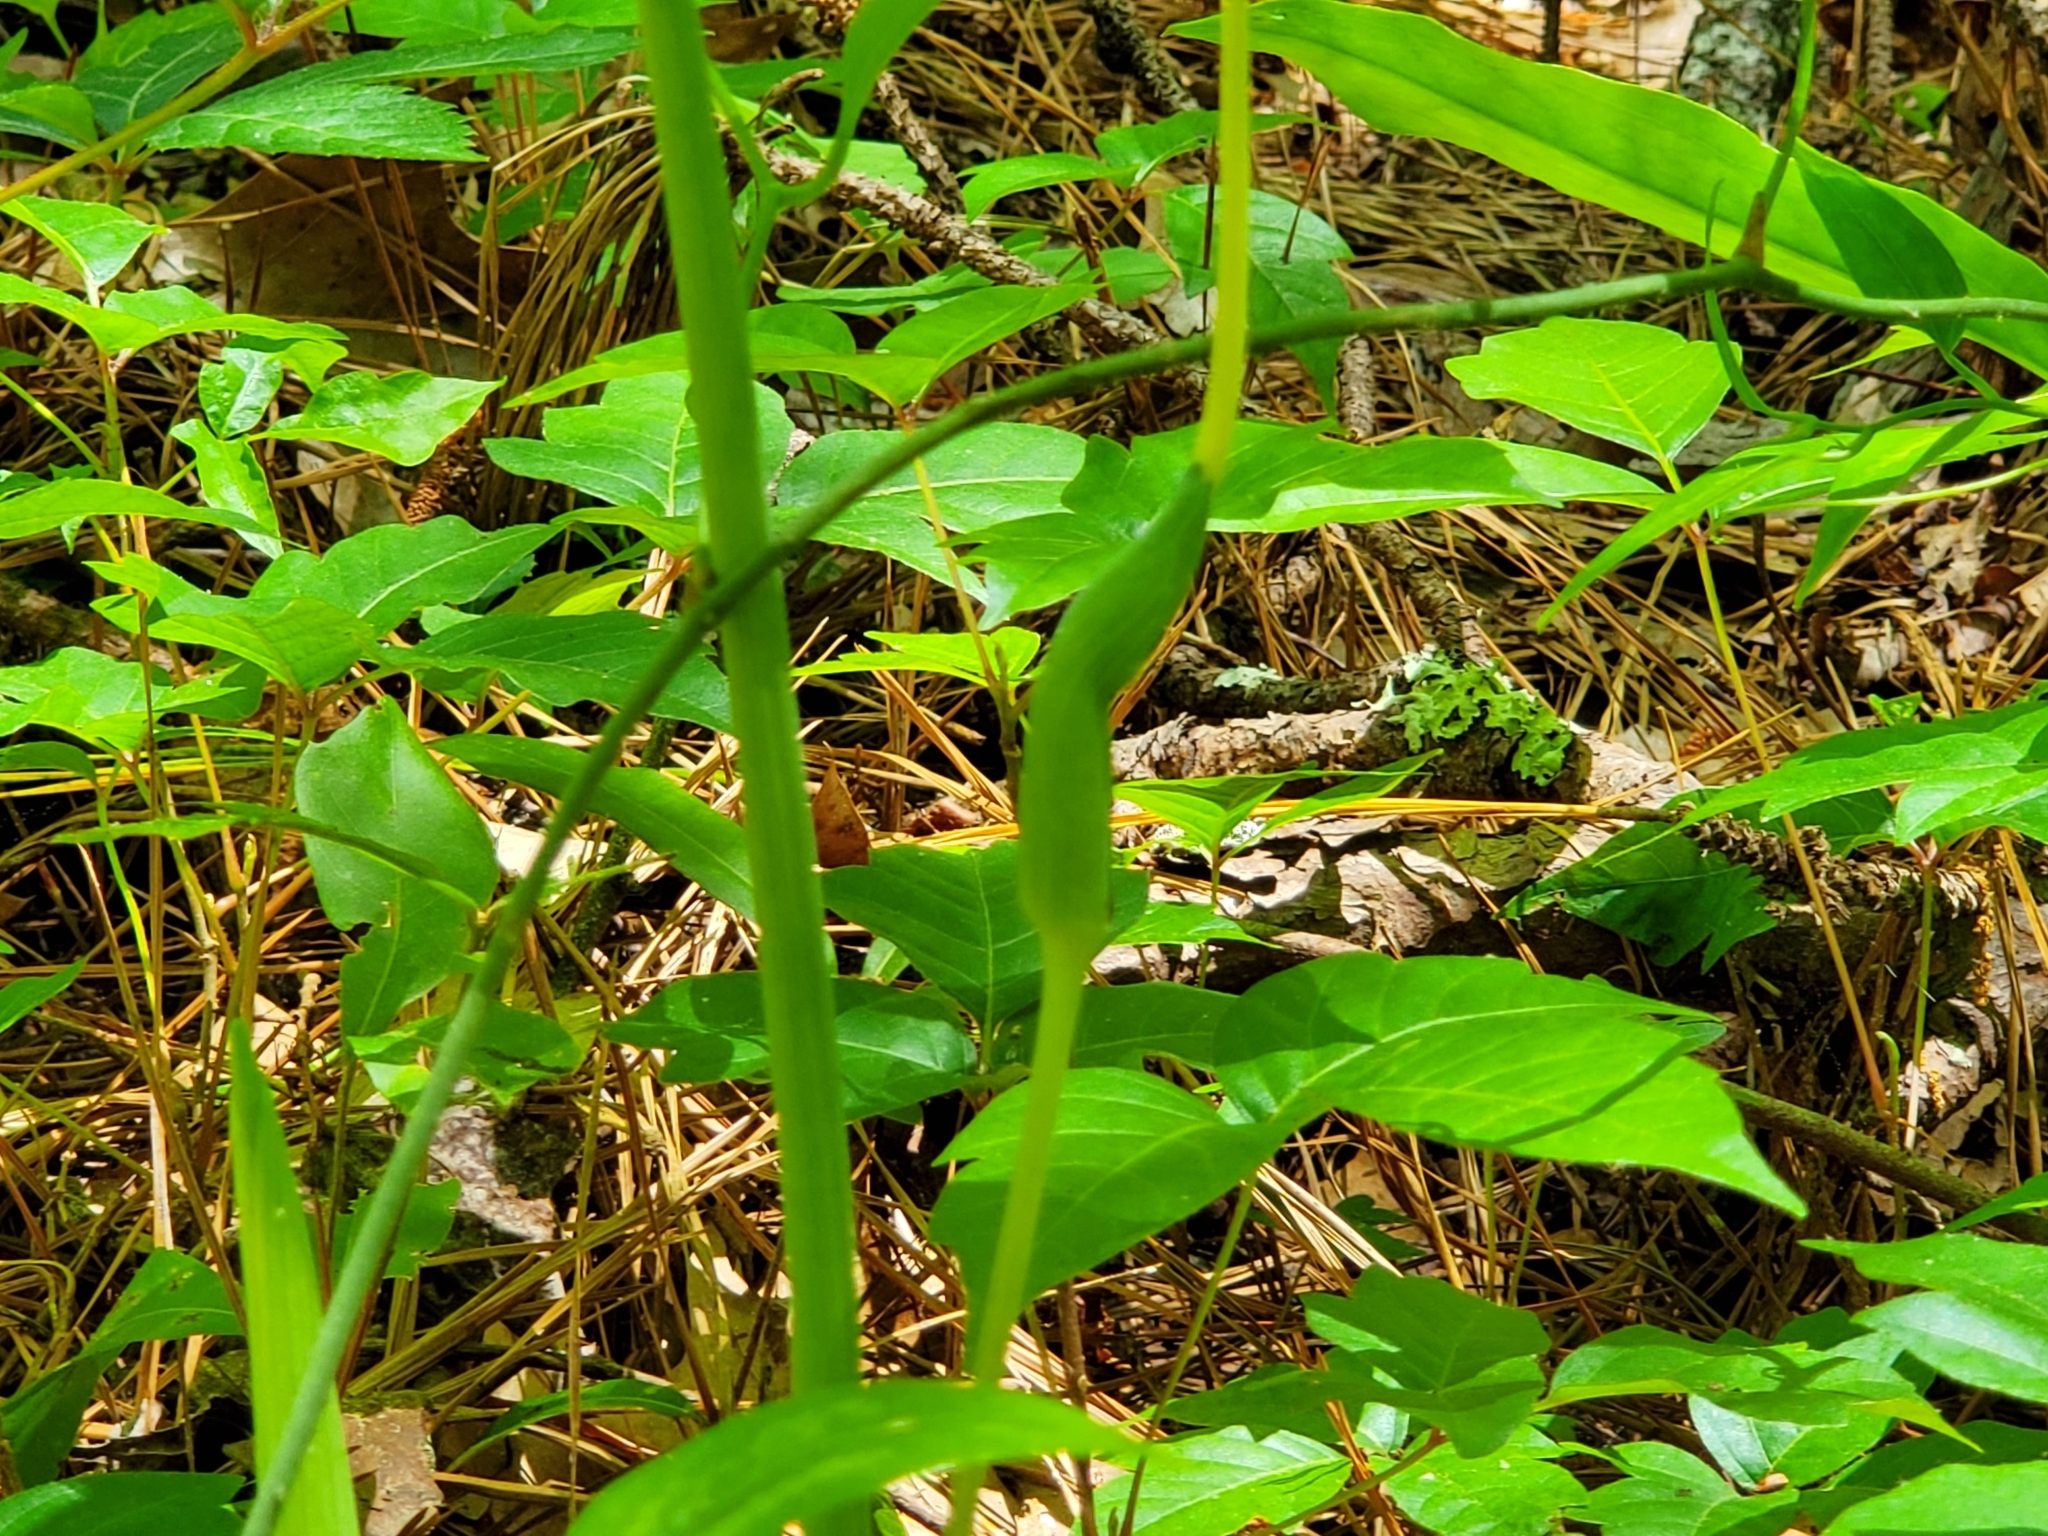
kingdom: Plantae
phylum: Tracheophyta
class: Liliopsida
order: Alismatales
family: Araceae
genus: Arisaema
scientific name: Arisaema dracontium
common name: Dragon-arum
